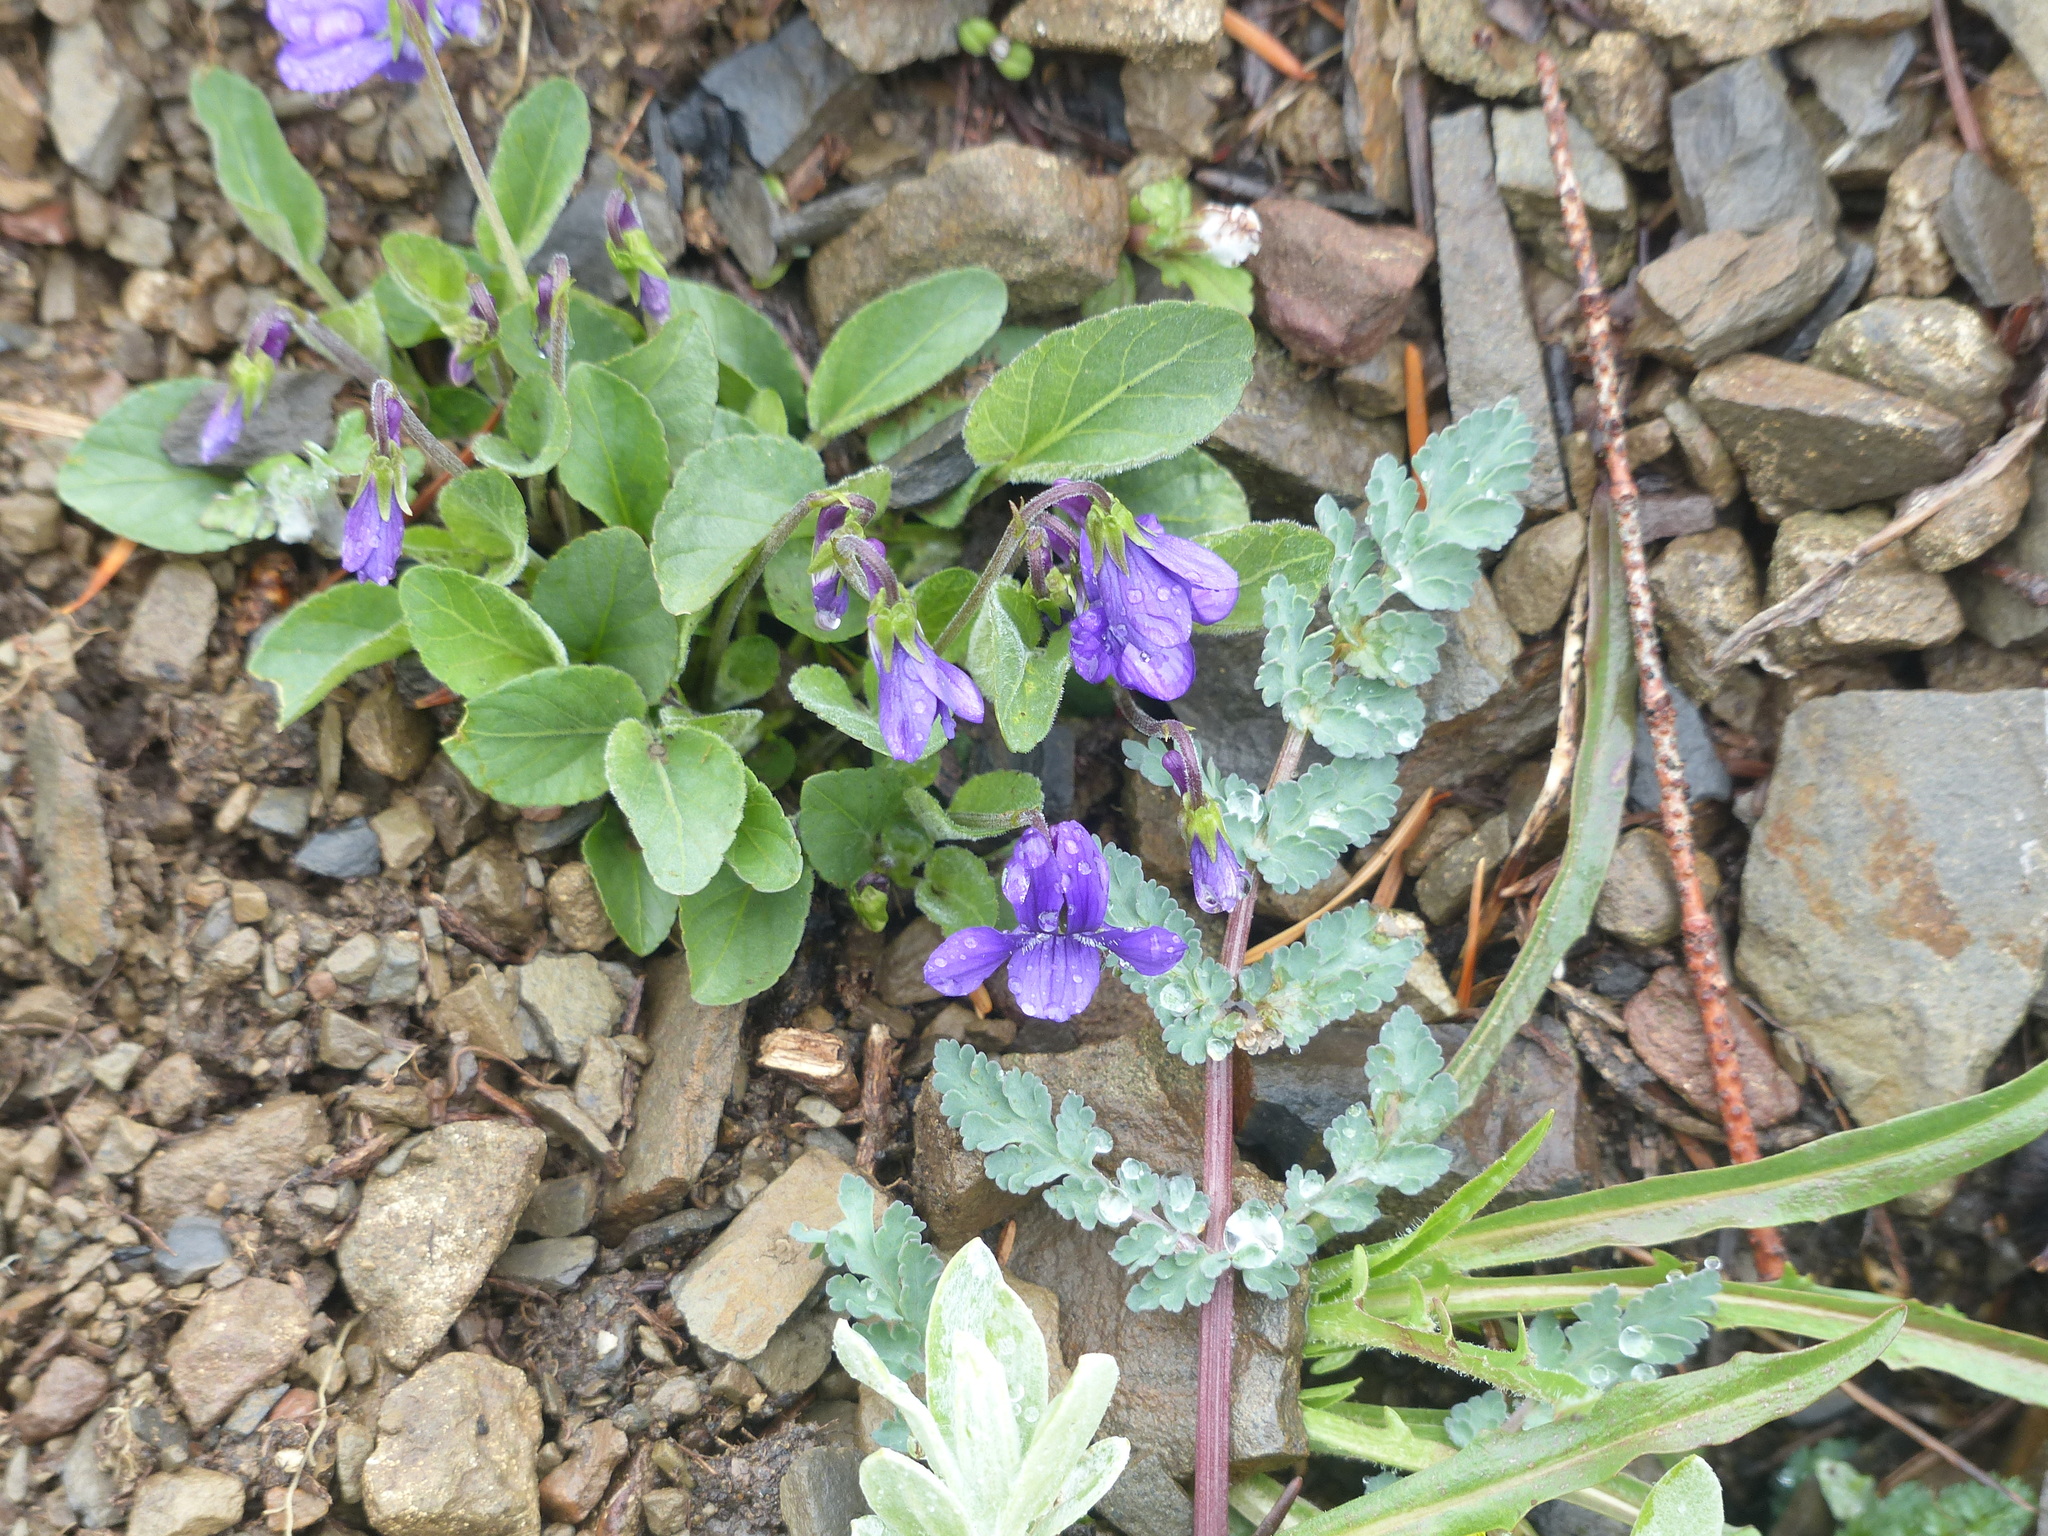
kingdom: Plantae
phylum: Tracheophyta
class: Magnoliopsida
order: Malpighiales
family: Violaceae
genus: Viola
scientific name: Viola adunca
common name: Sand violet
